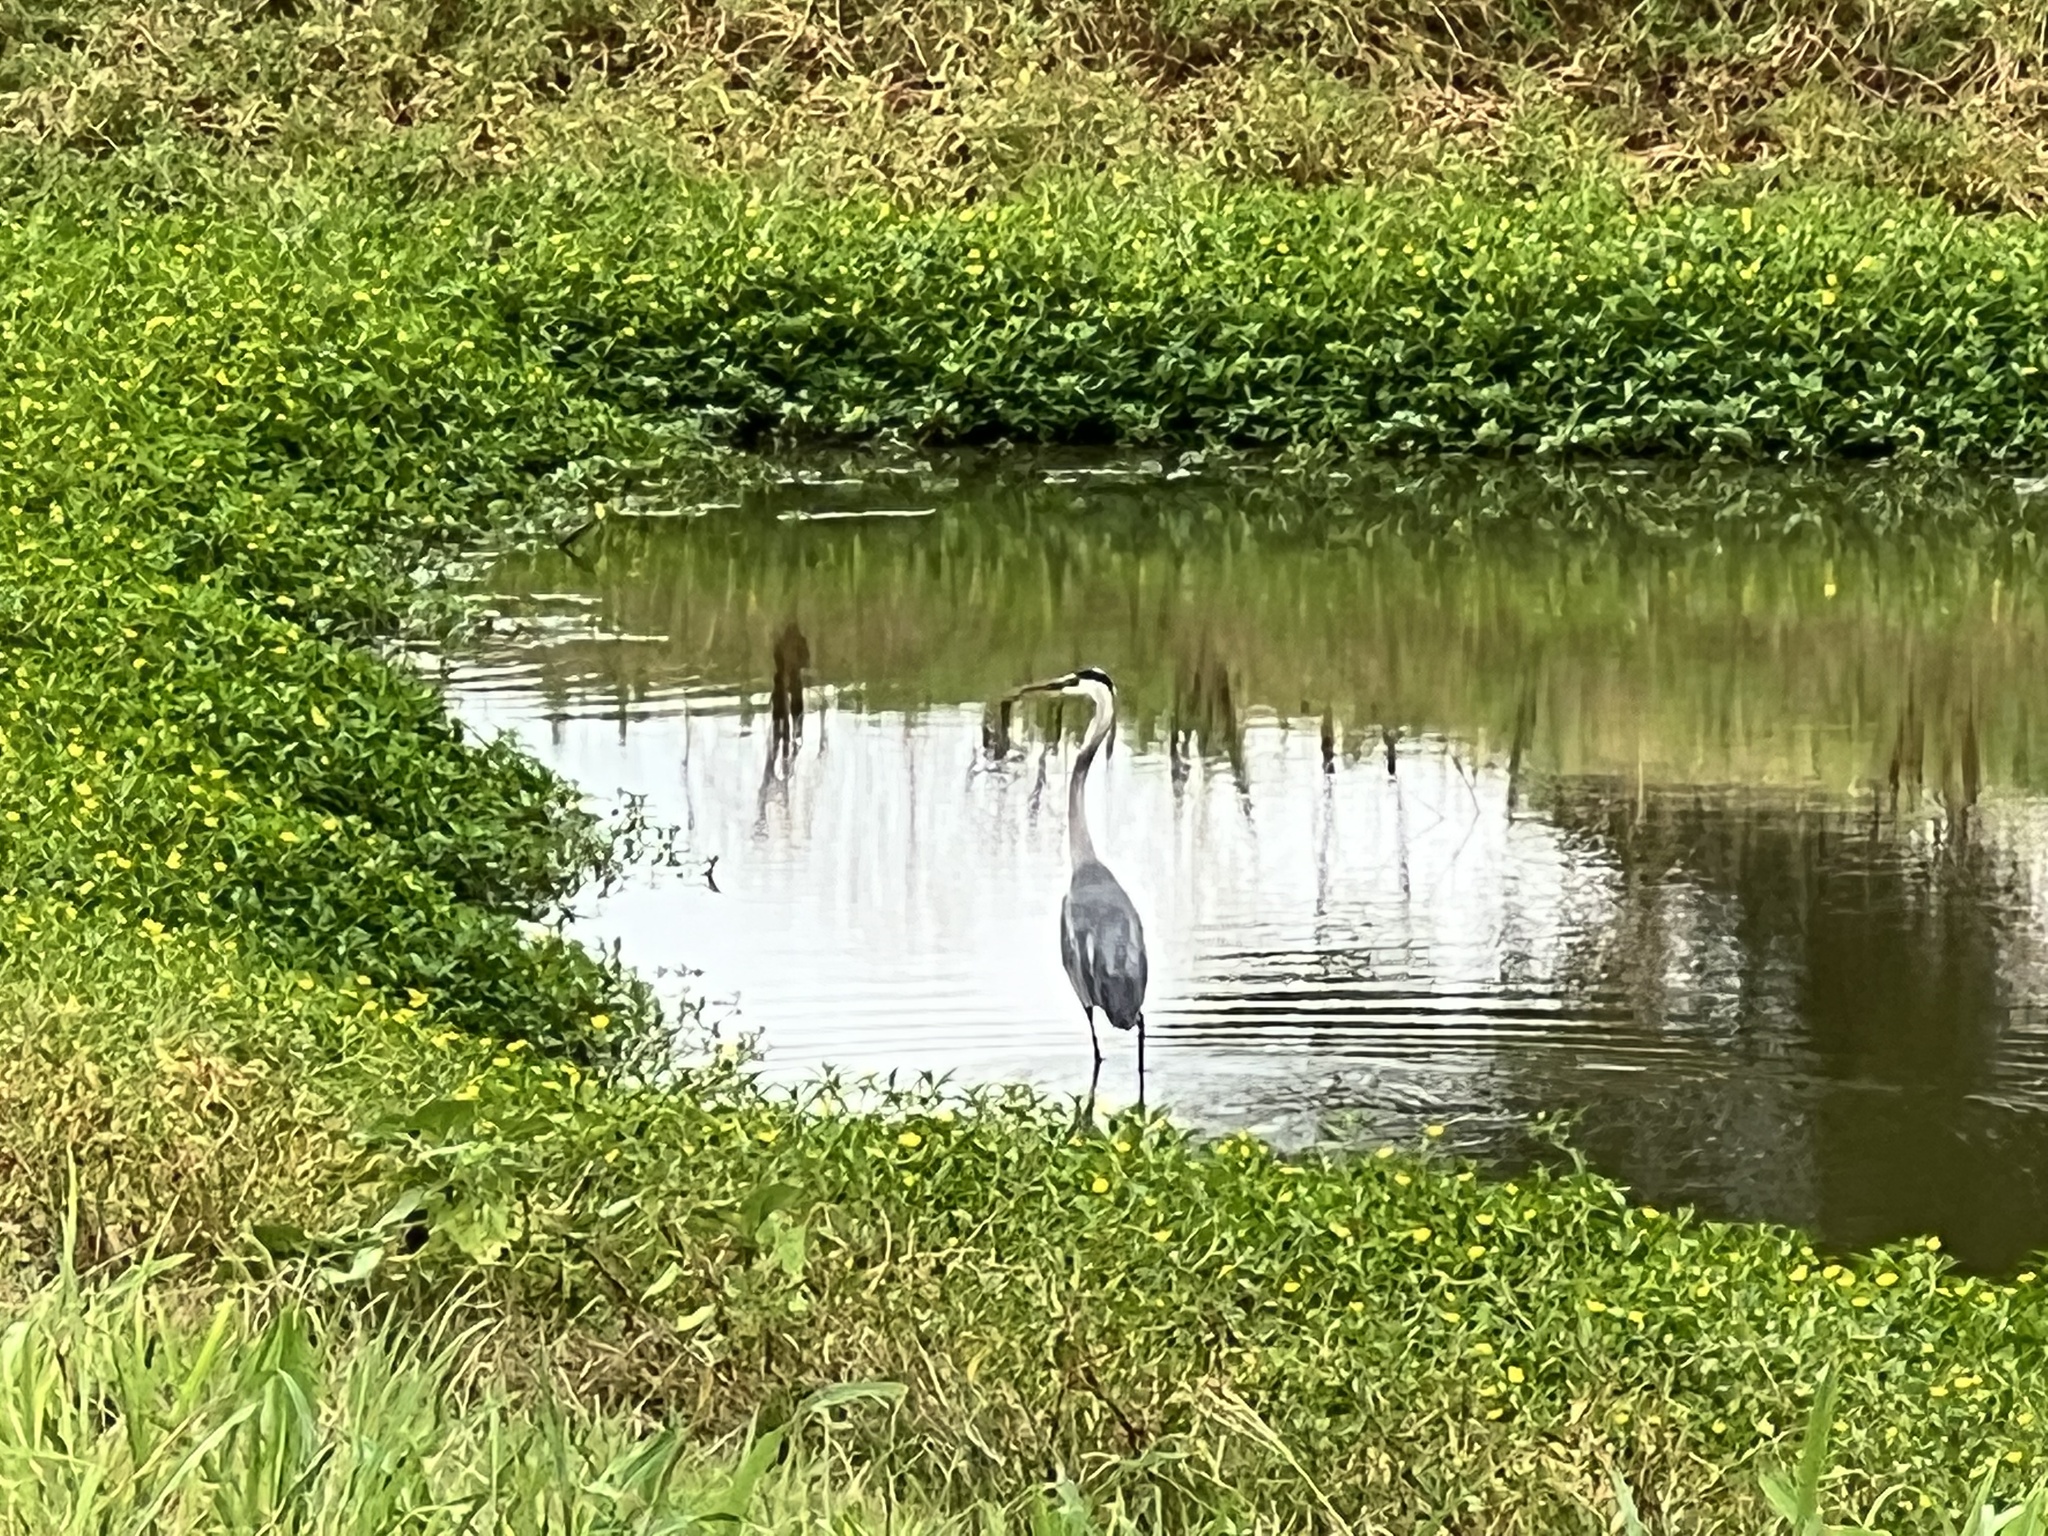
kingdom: Animalia
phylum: Chordata
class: Aves
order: Pelecaniformes
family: Ardeidae
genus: Ardea
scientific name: Ardea herodias
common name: Great blue heron
